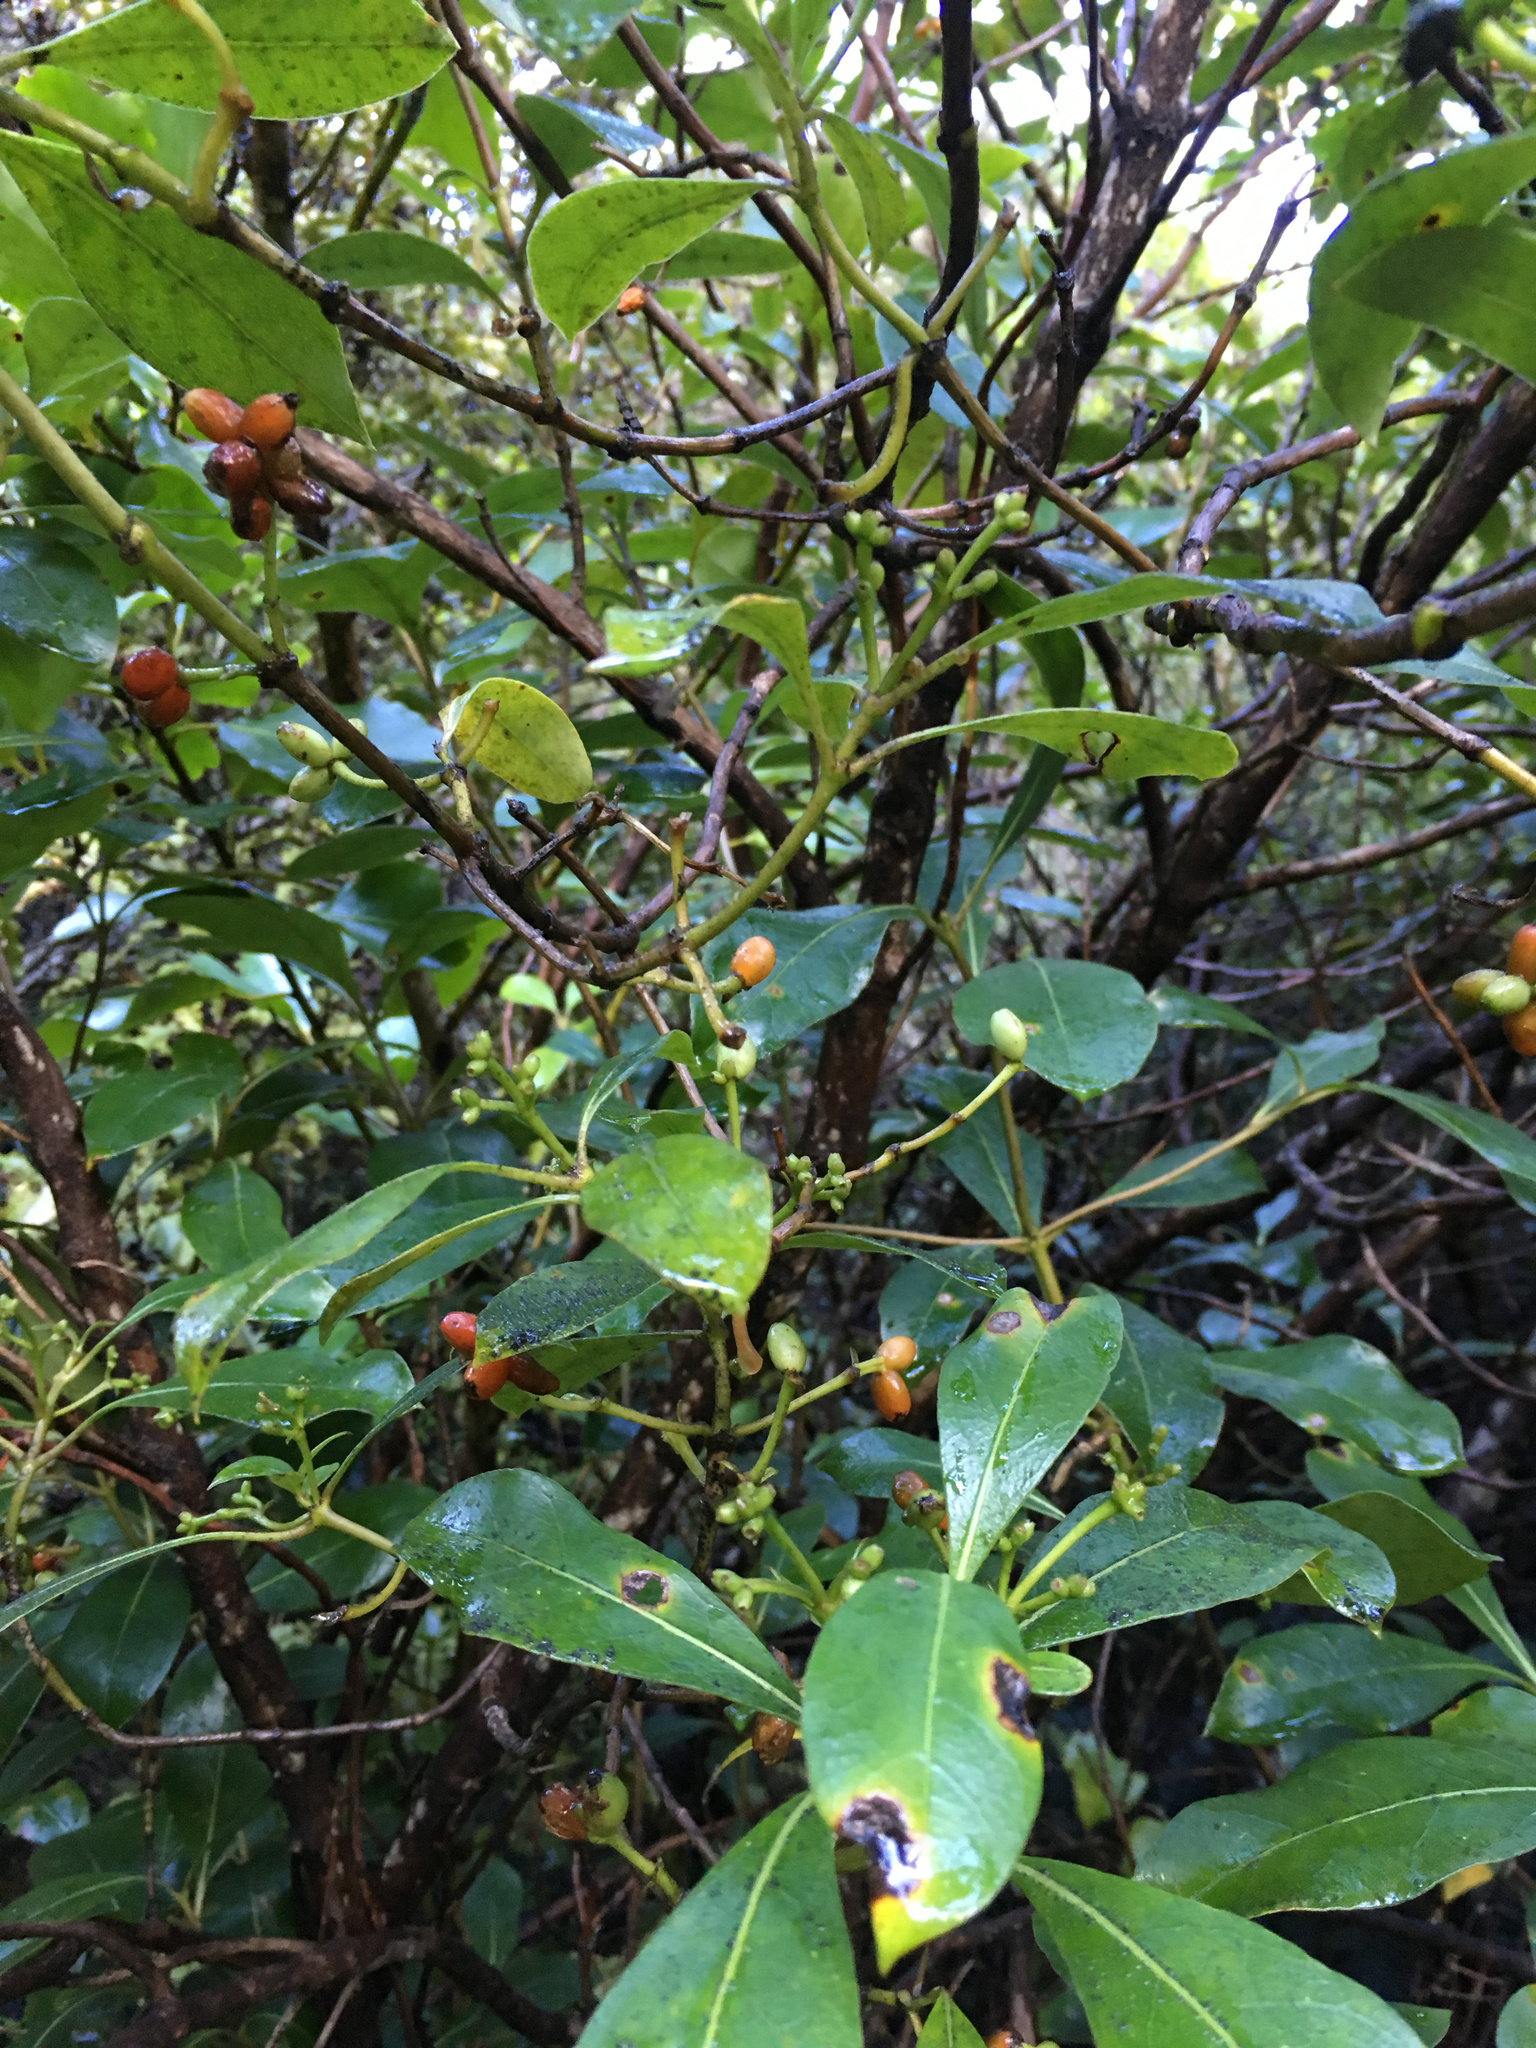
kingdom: Plantae
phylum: Tracheophyta
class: Magnoliopsida
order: Gentianales
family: Rubiaceae
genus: Coprosma
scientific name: Coprosma lucida
